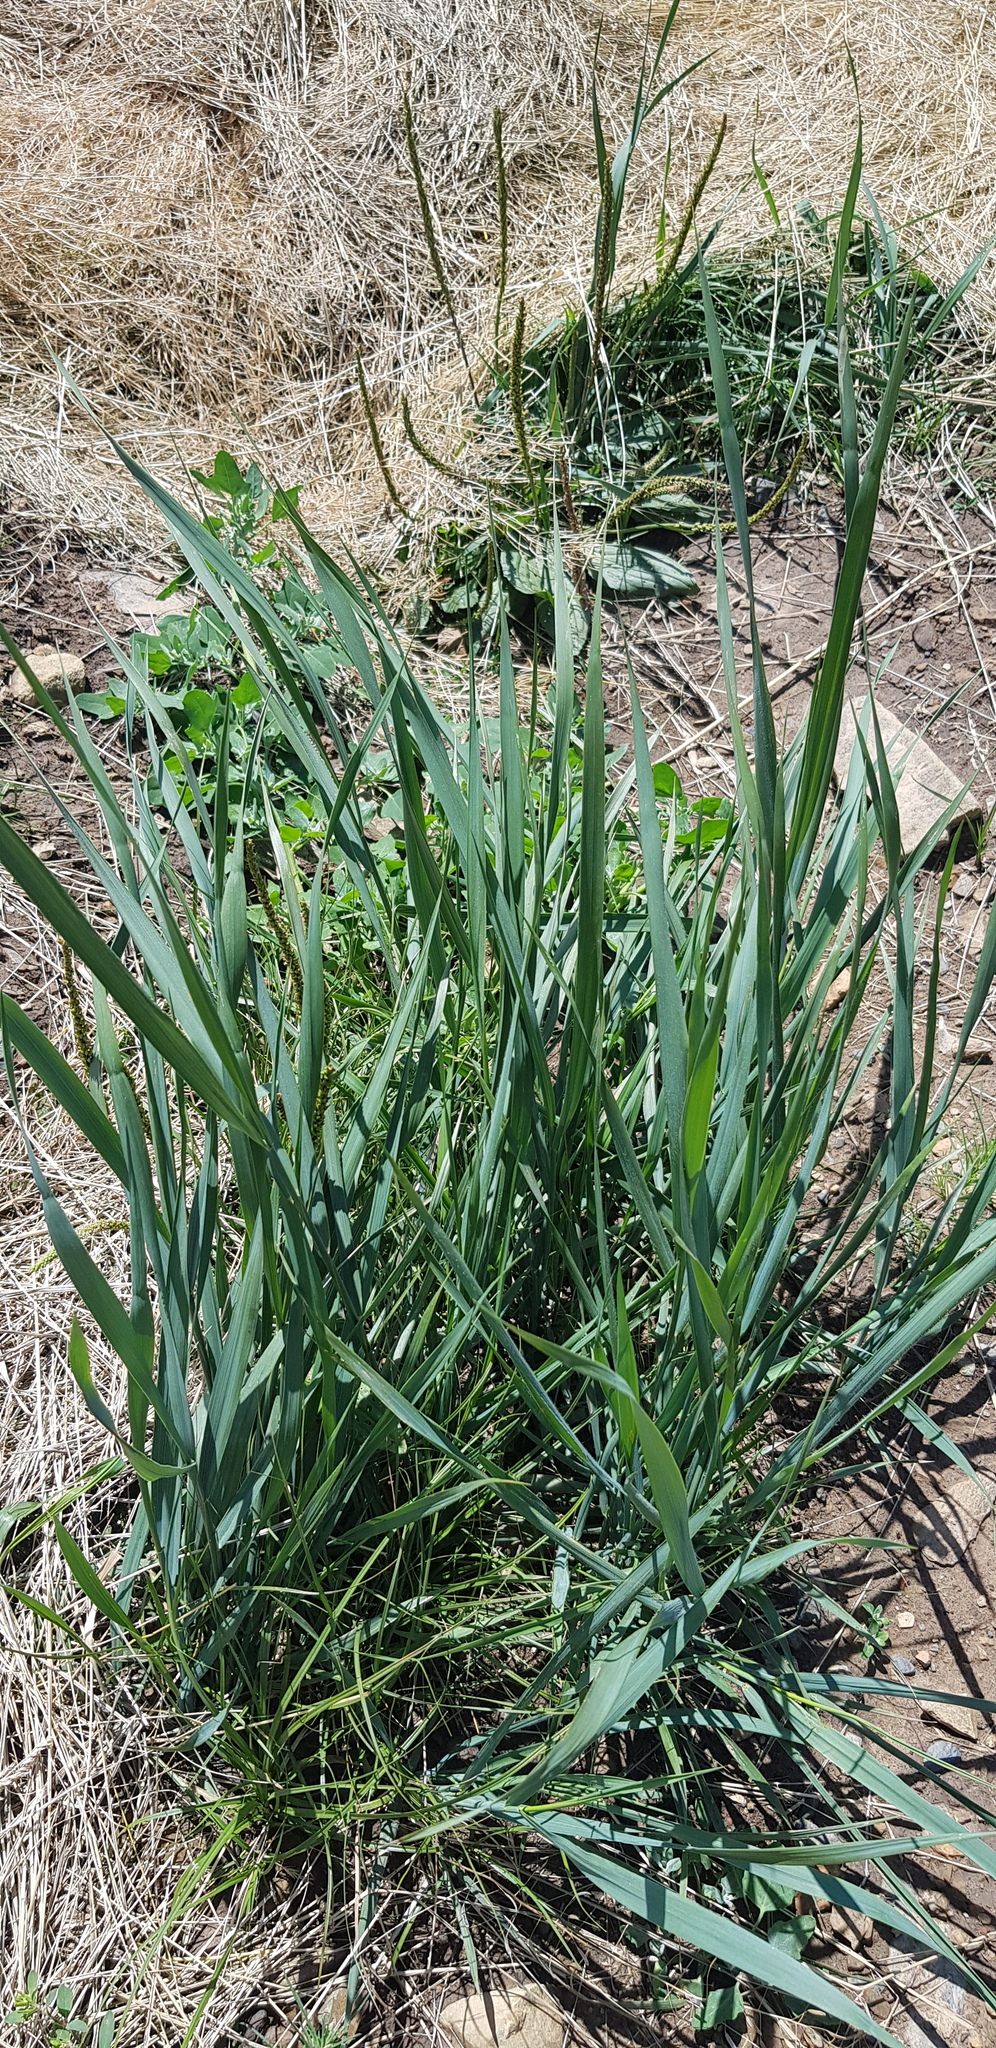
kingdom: Plantae
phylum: Tracheophyta
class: Liliopsida
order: Poales
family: Poaceae
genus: Elymus
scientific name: Elymus repens
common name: Quackgrass
